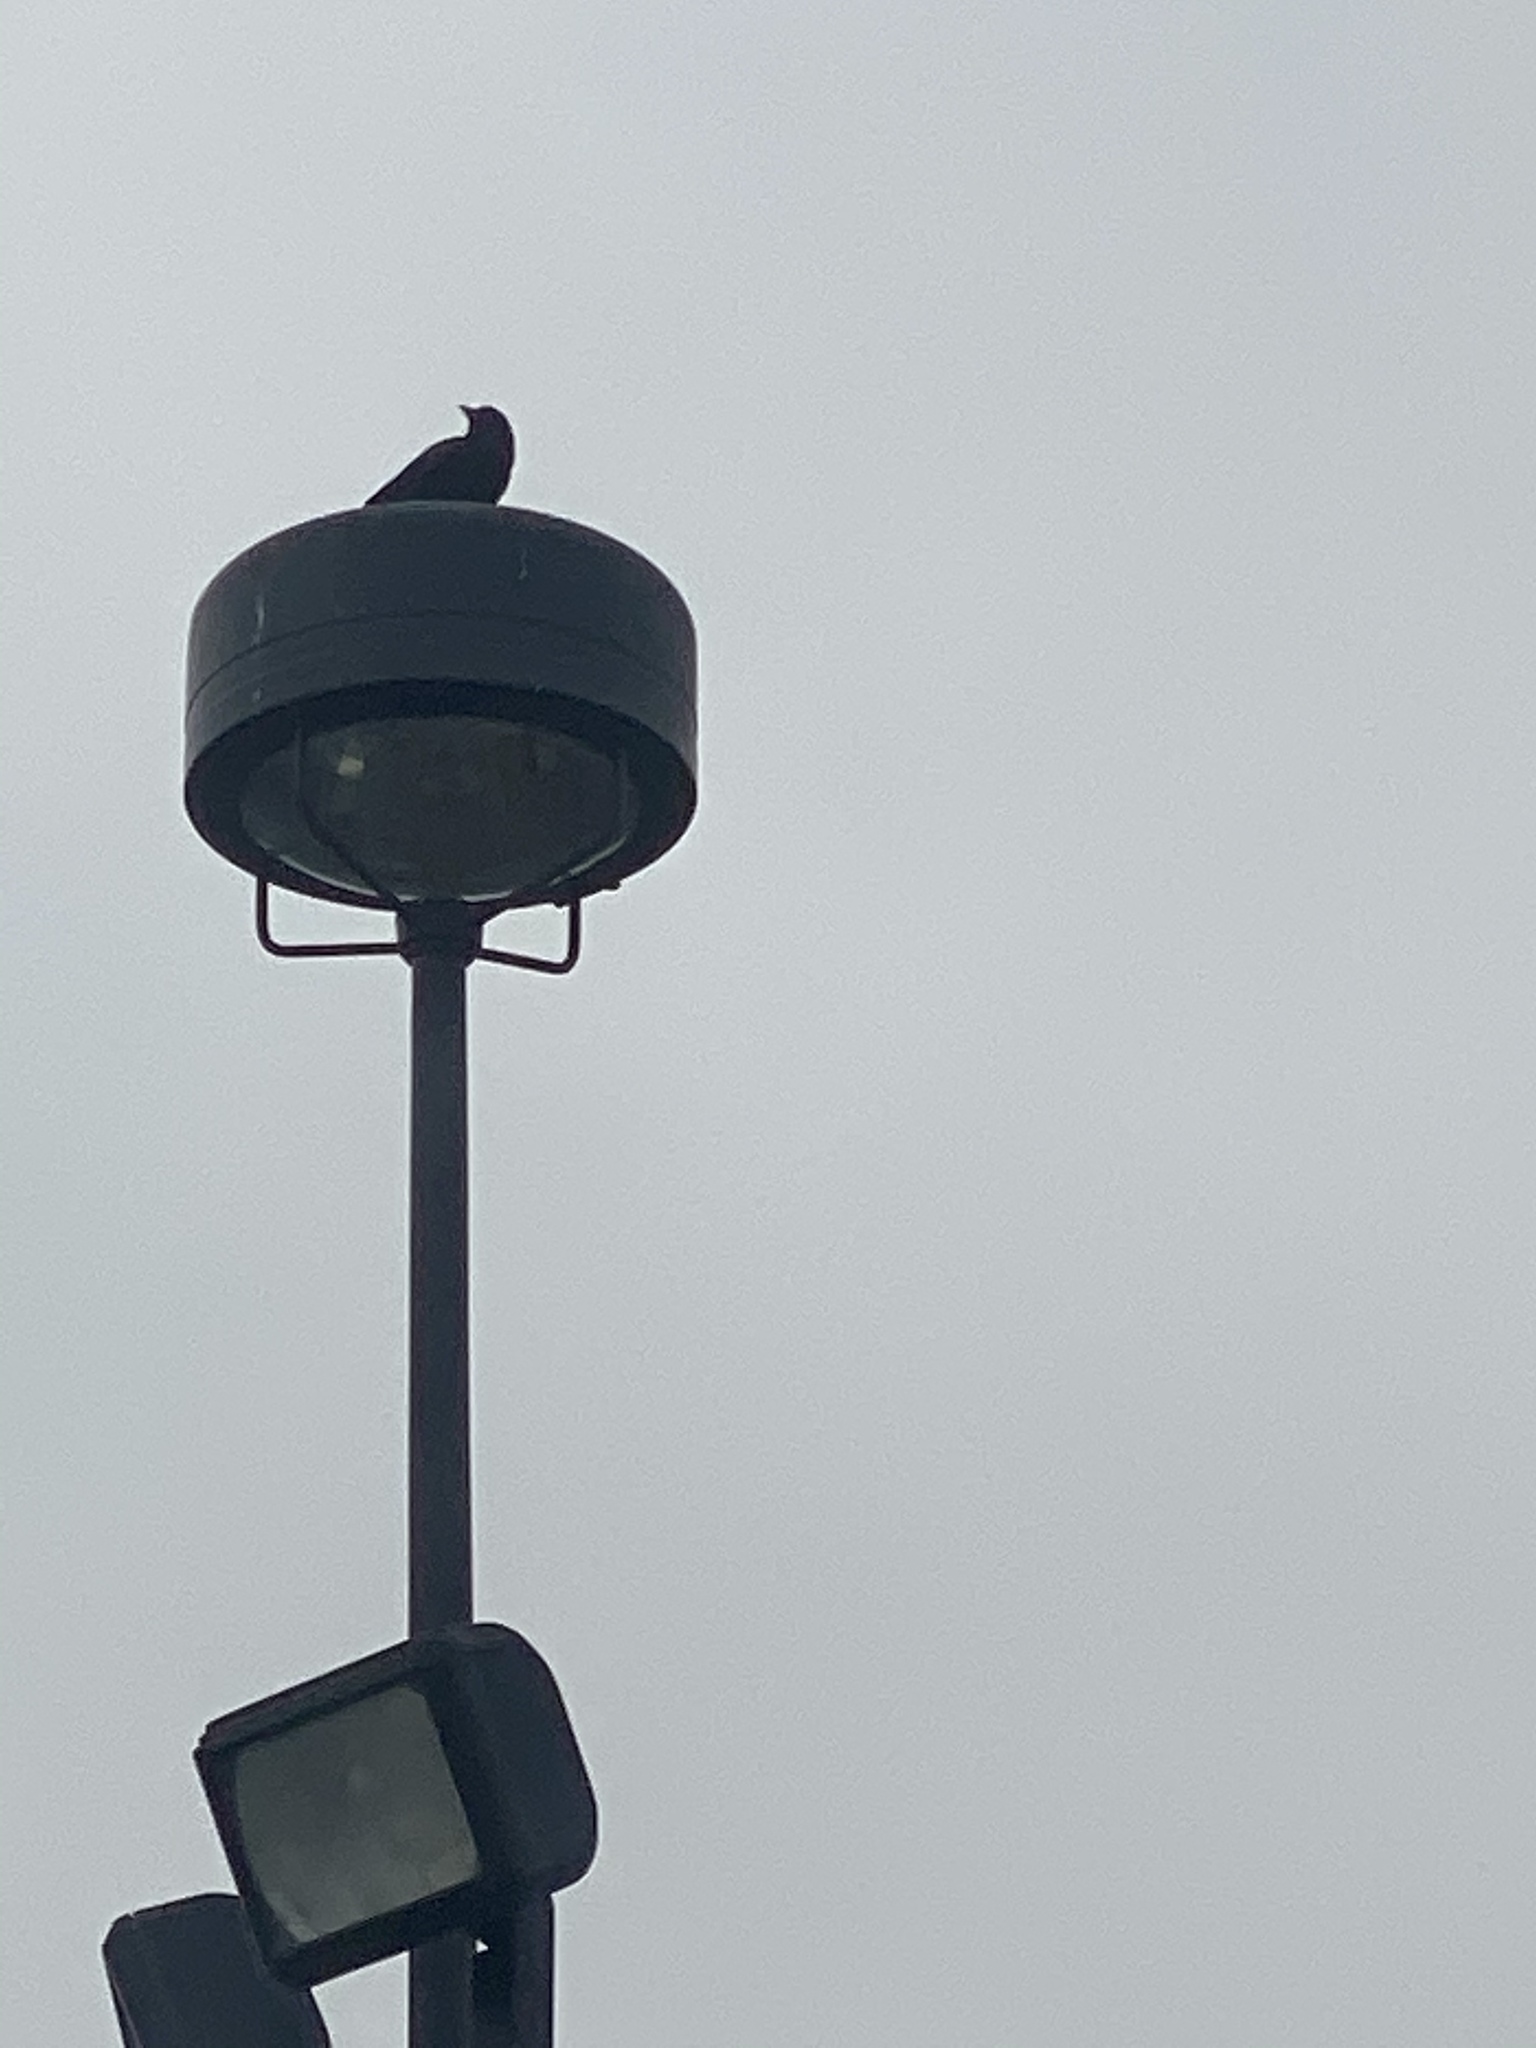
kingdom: Animalia
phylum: Chordata
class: Aves
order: Passeriformes
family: Corvidae
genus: Corvus
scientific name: Corvus brachyrhynchos
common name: American crow
